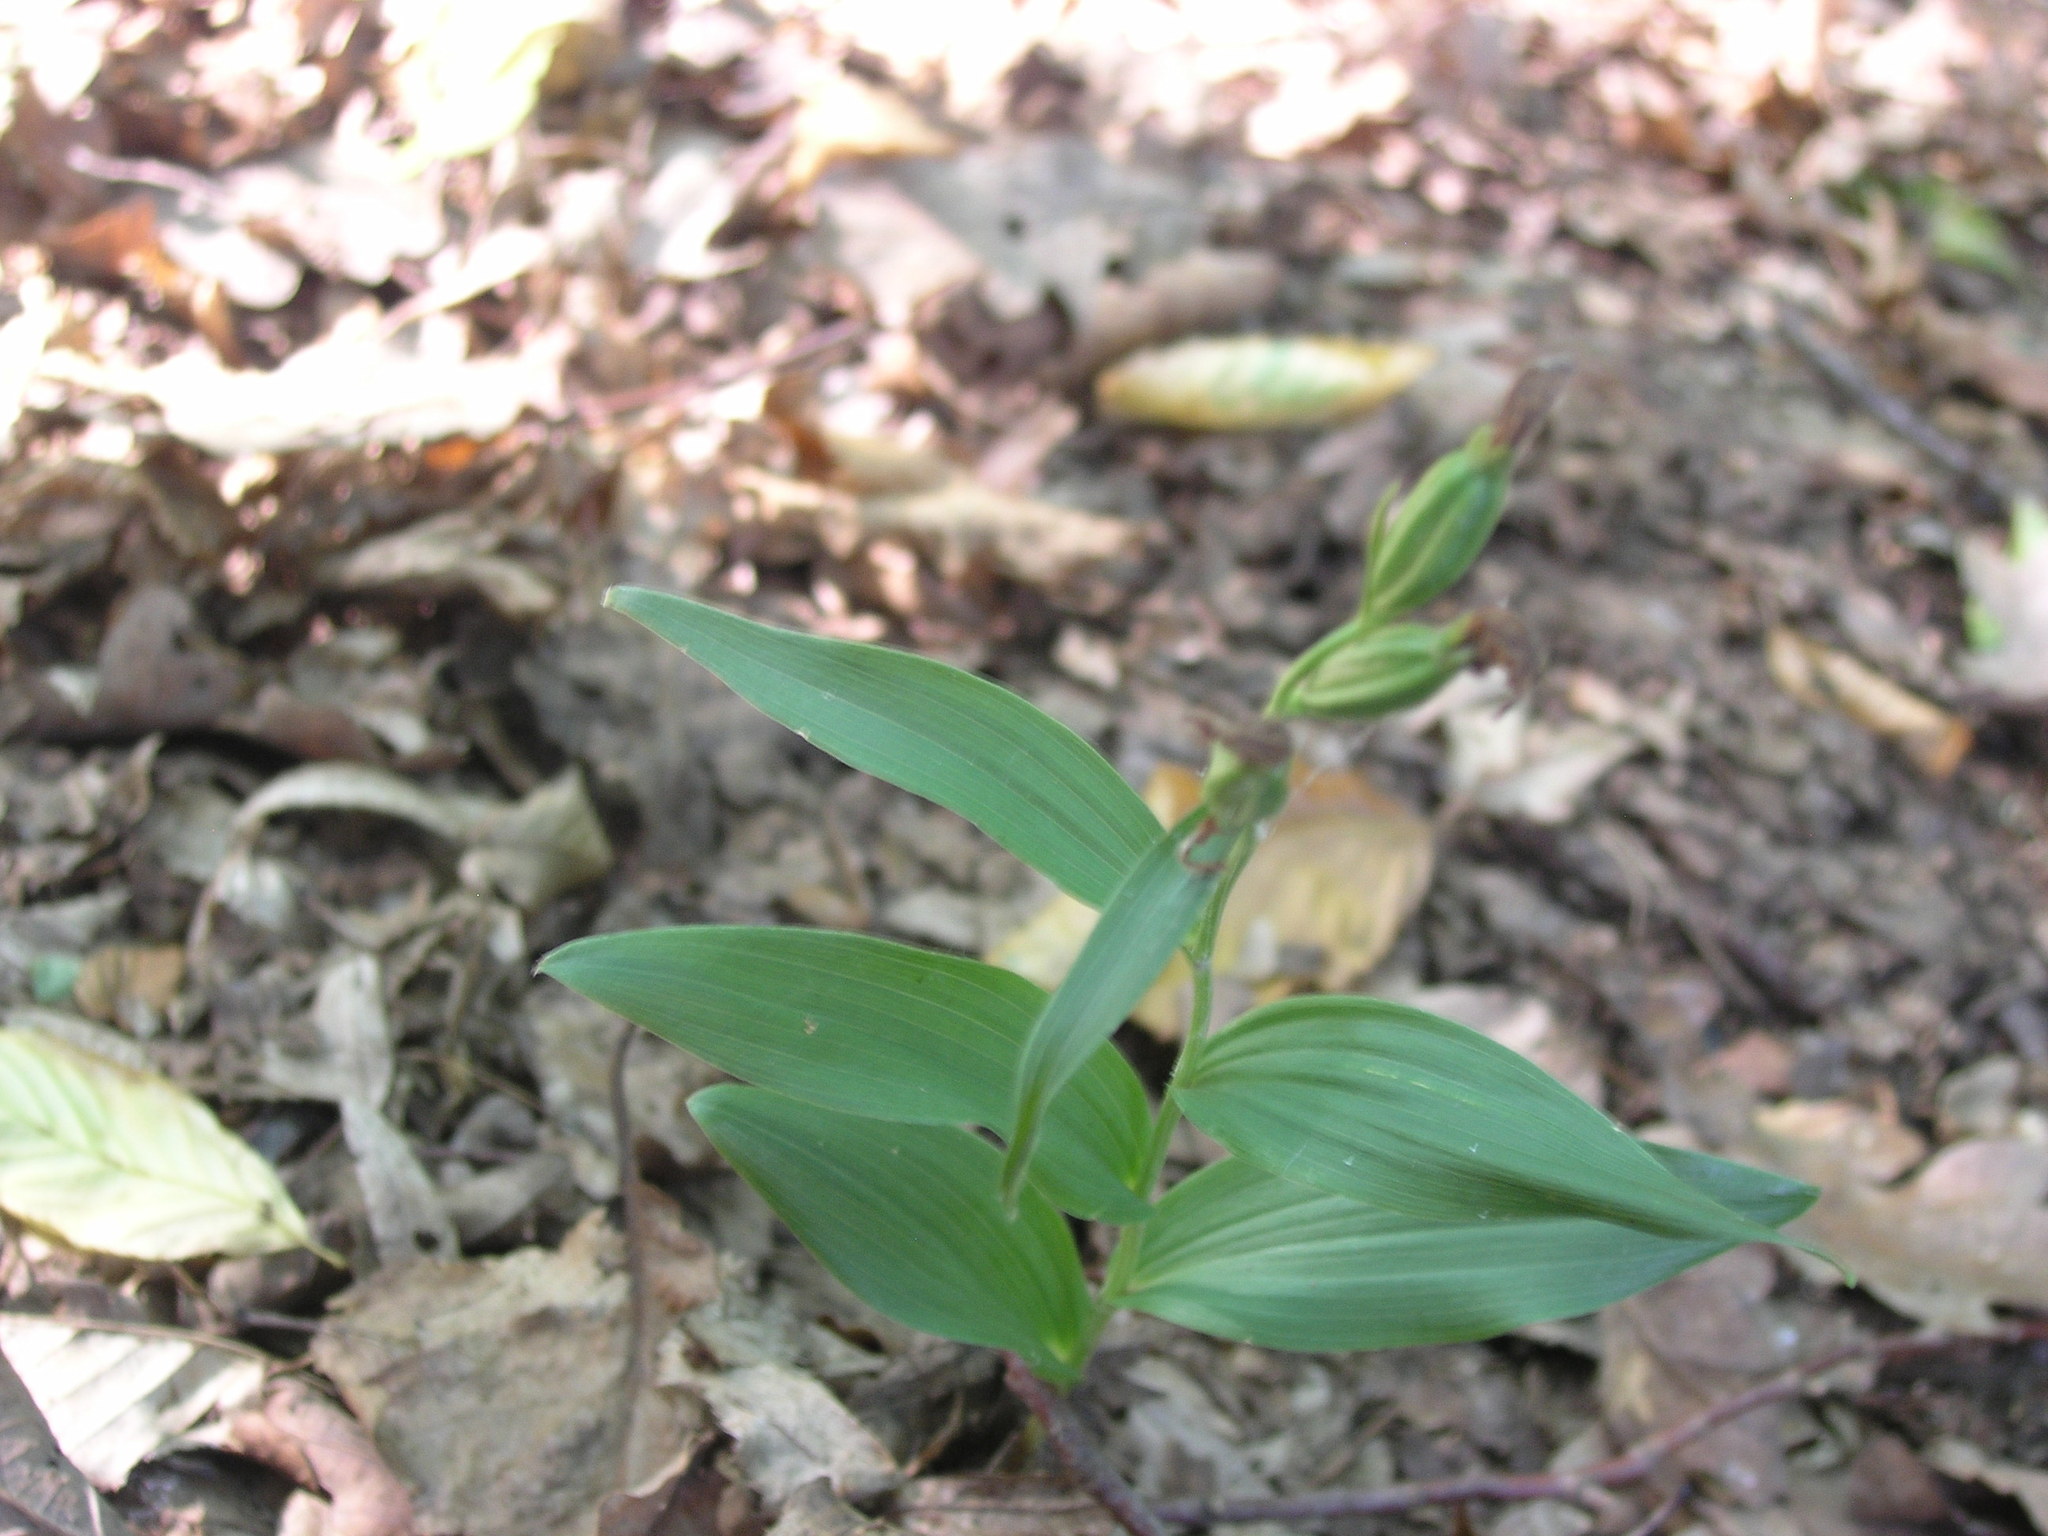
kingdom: Plantae
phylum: Tracheophyta
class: Liliopsida
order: Asparagales
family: Orchidaceae
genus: Cephalanthera
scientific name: Cephalanthera damasonium
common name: White helleborine
